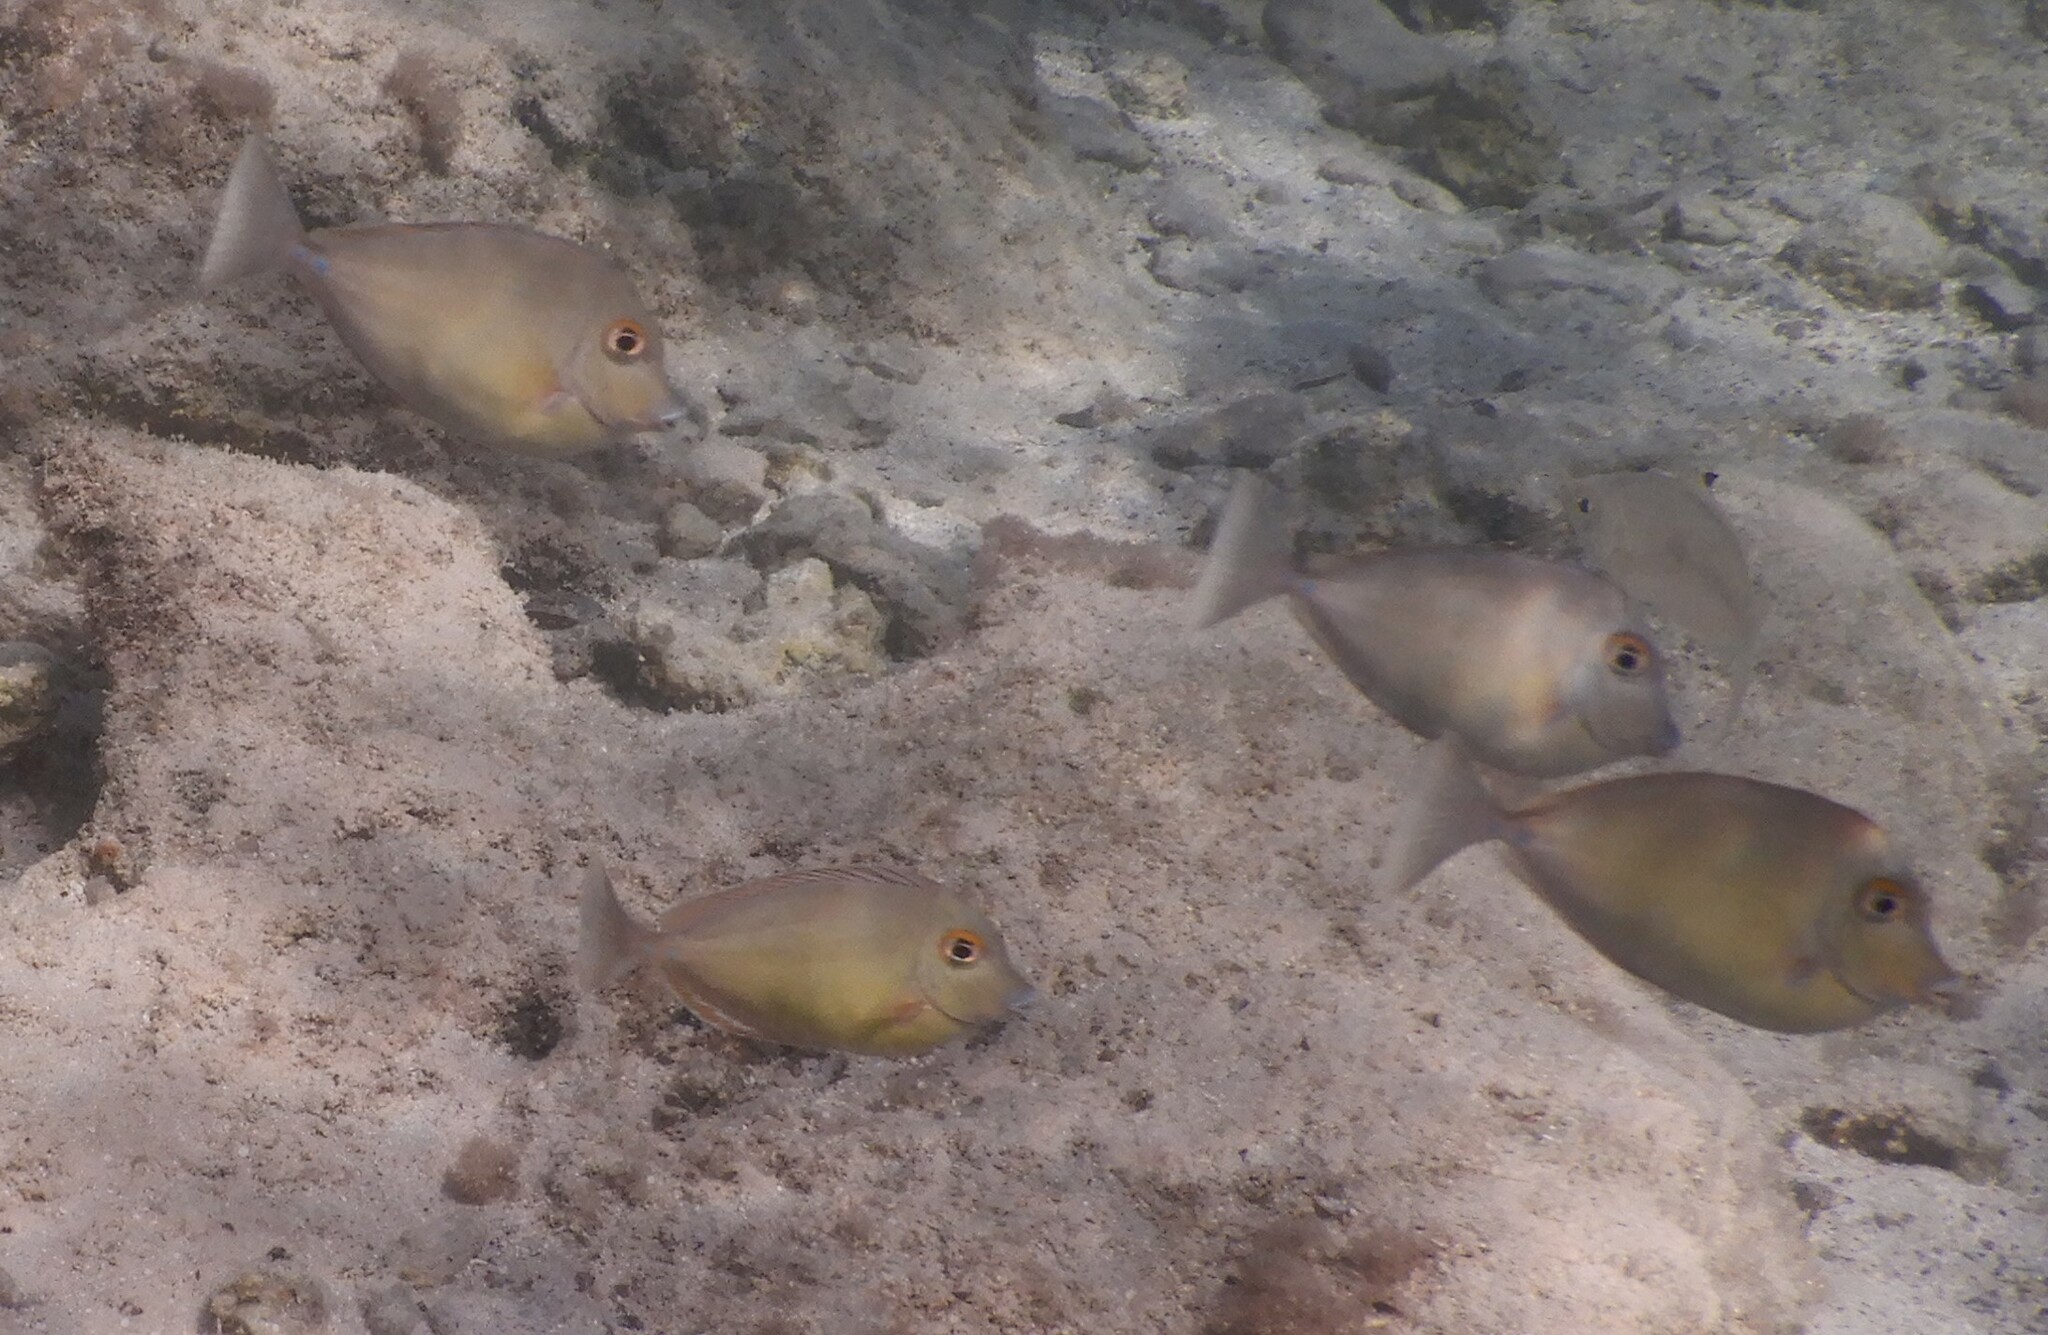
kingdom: Animalia
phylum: Chordata
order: Perciformes
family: Acanthuridae
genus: Naso
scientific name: Naso unicornis
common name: Bluespine unicornfish
